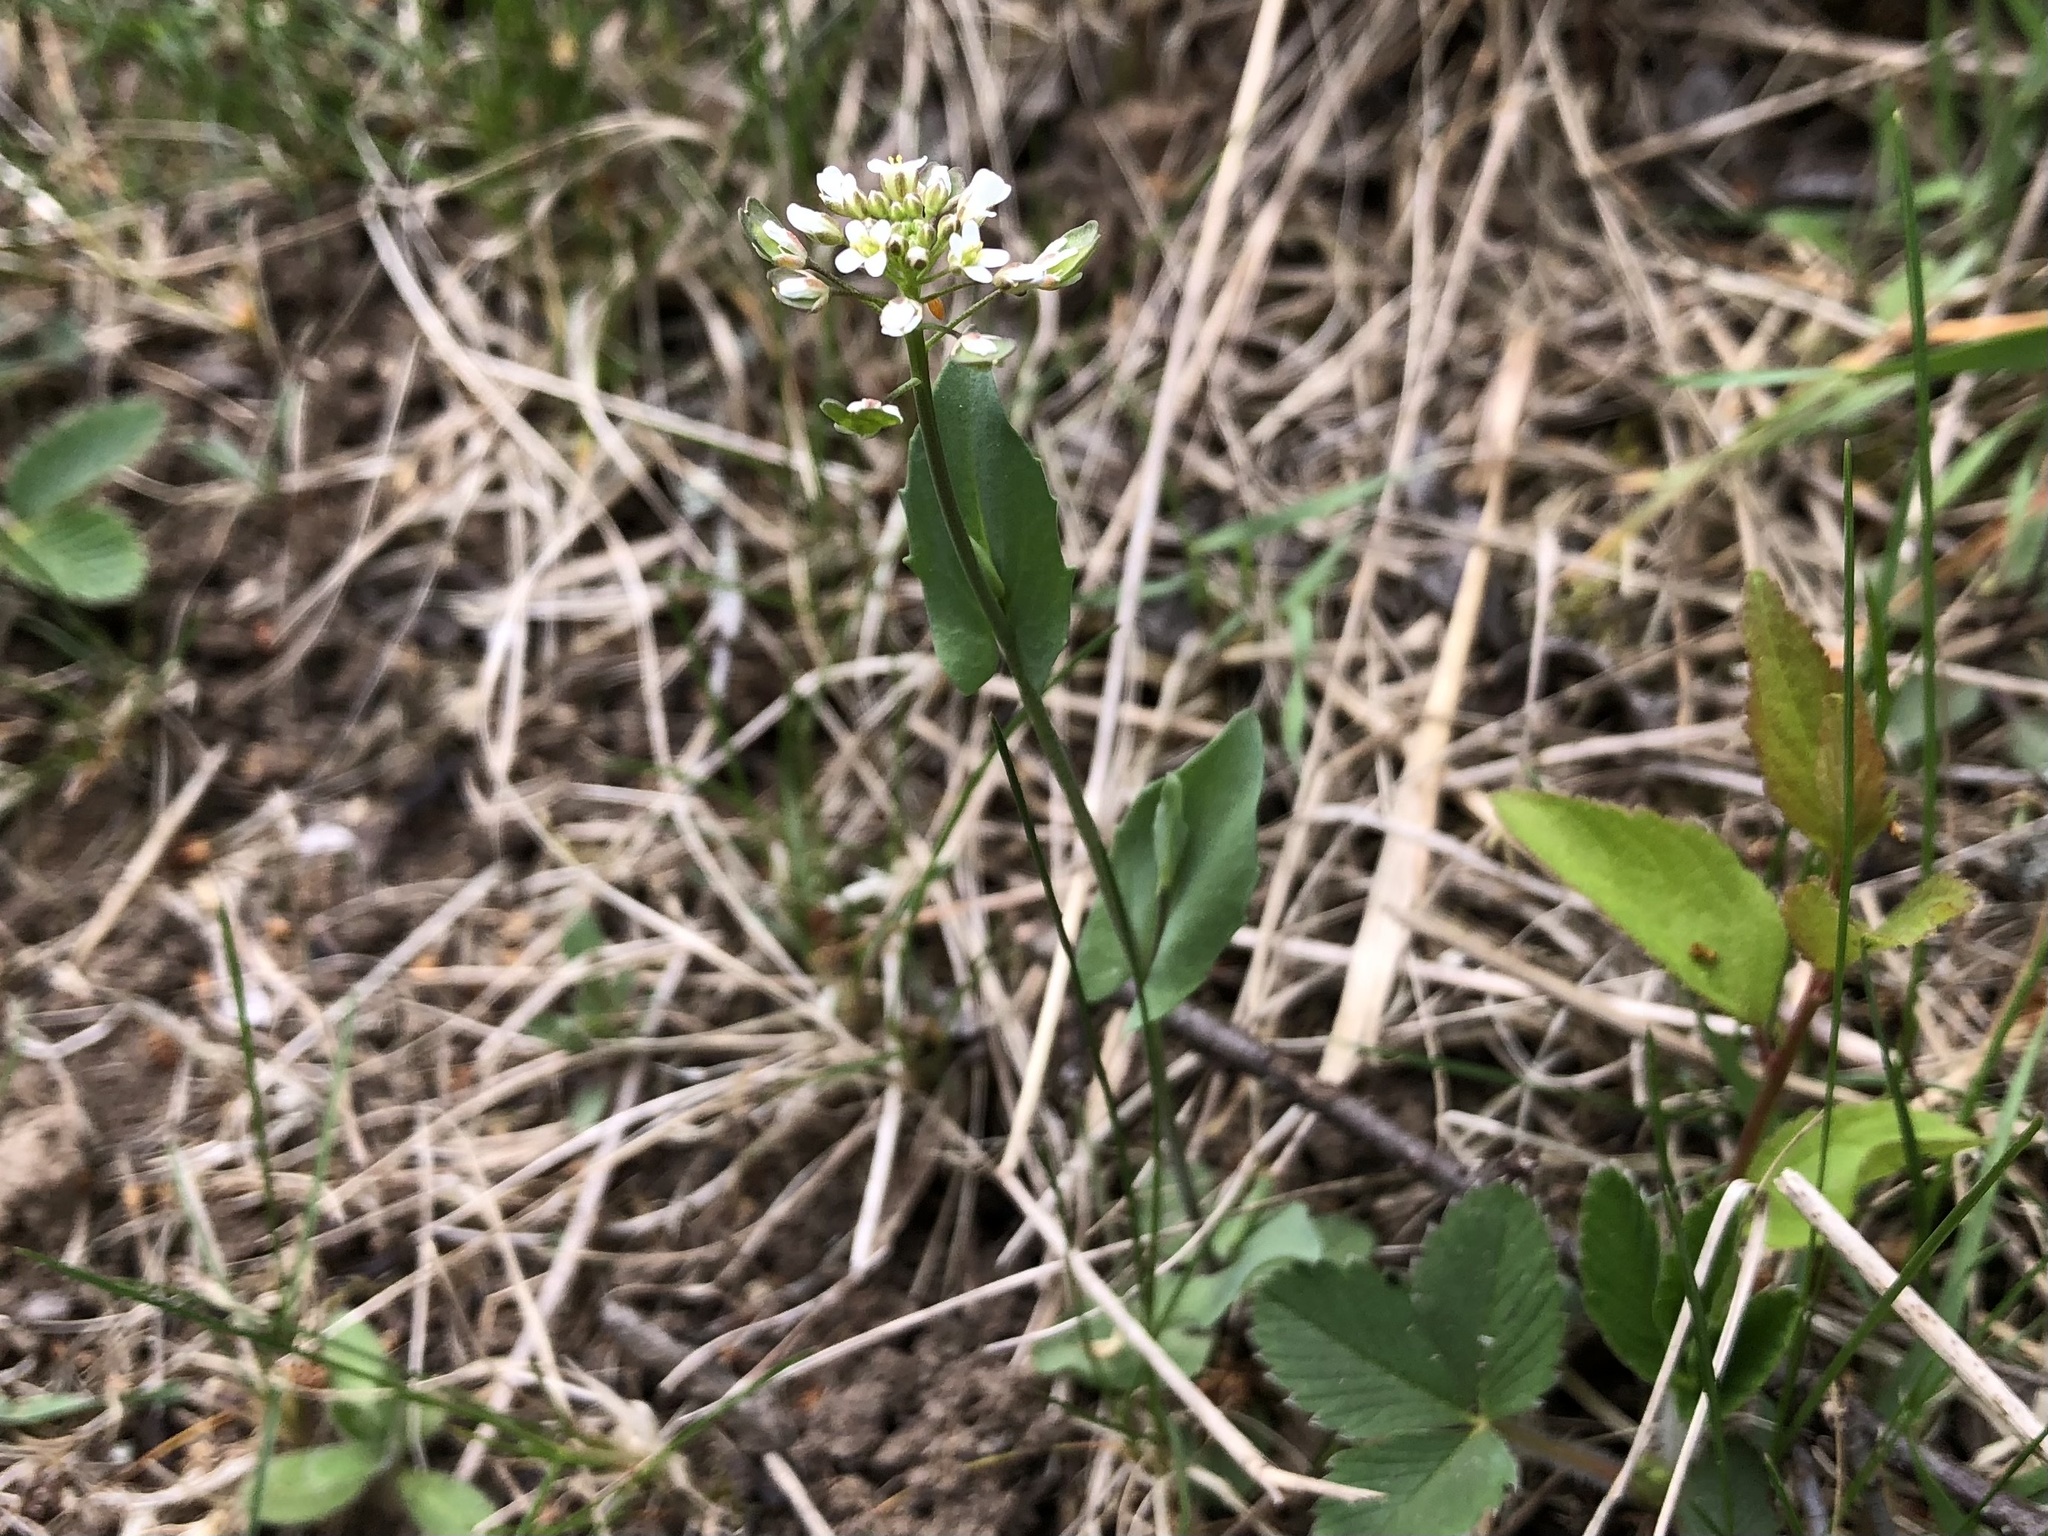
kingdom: Plantae
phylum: Tracheophyta
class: Magnoliopsida
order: Brassicales
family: Brassicaceae
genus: Noccaea
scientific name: Noccaea perfoliata
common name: Perfoliate pennycress
